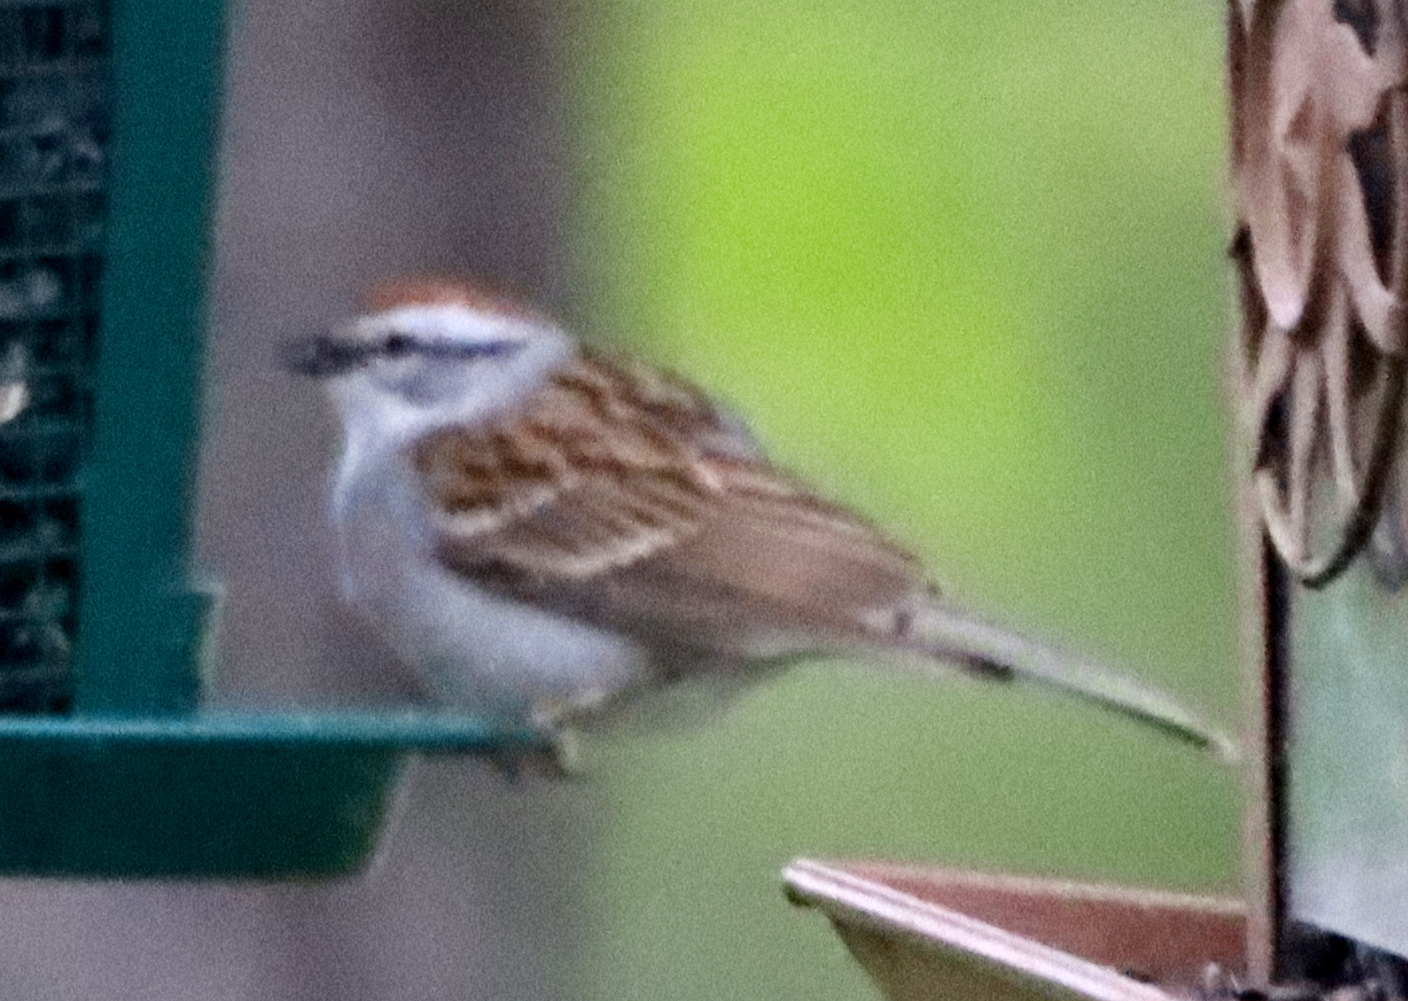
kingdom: Animalia
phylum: Chordata
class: Aves
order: Passeriformes
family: Passerellidae
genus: Spizella
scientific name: Spizella passerina
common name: Chipping sparrow
